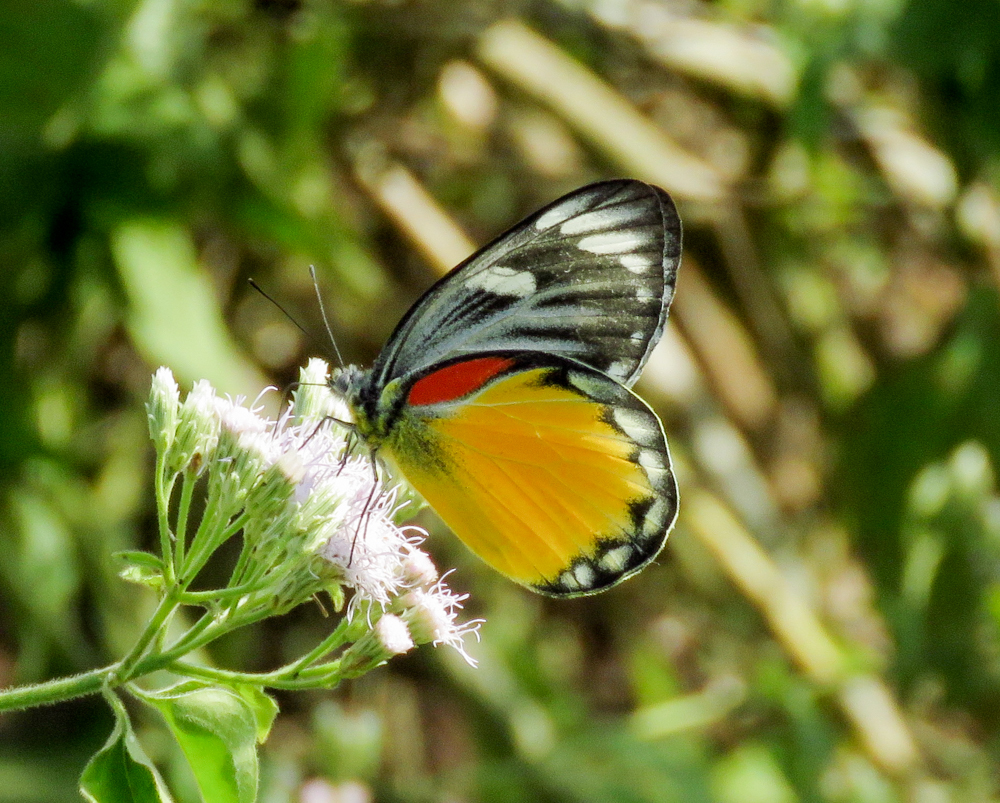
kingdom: Animalia
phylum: Arthropoda
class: Insecta
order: Lepidoptera
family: Pieridae
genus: Delias
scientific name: Delias descombesi
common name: Red-spot jezebel
